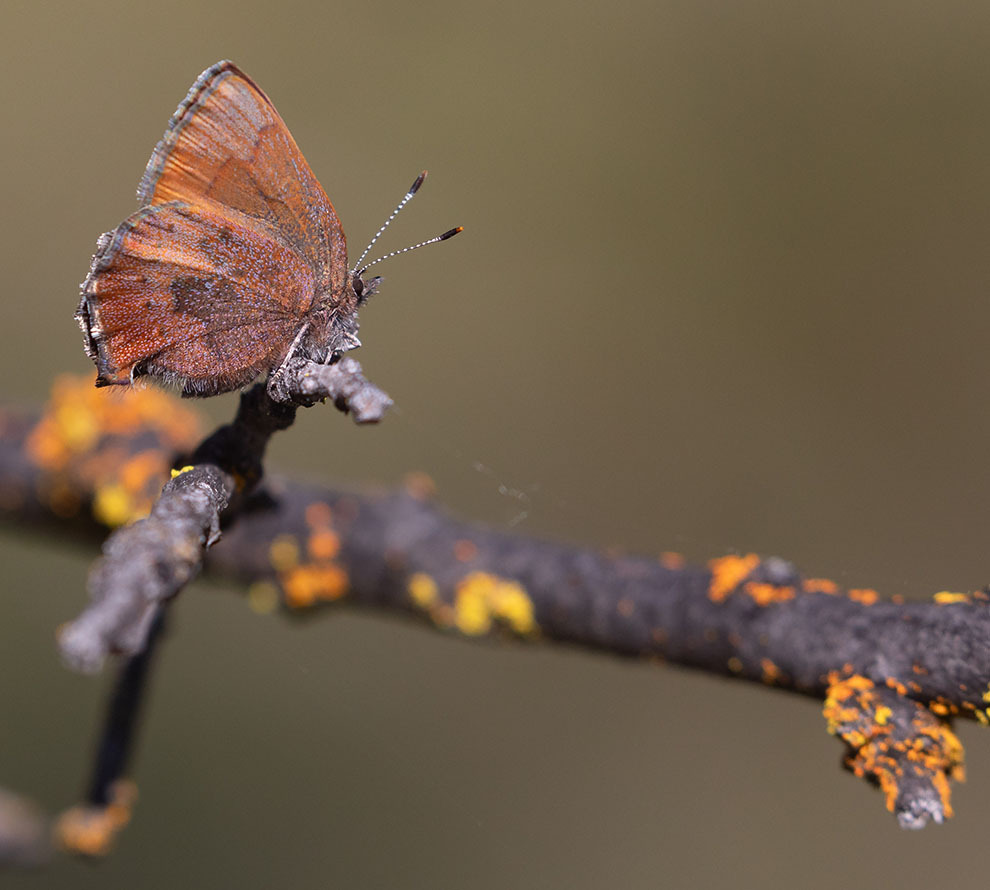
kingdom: Animalia
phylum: Arthropoda
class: Insecta
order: Lepidoptera
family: Lycaenidae
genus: Incisalia
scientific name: Incisalia irioides
